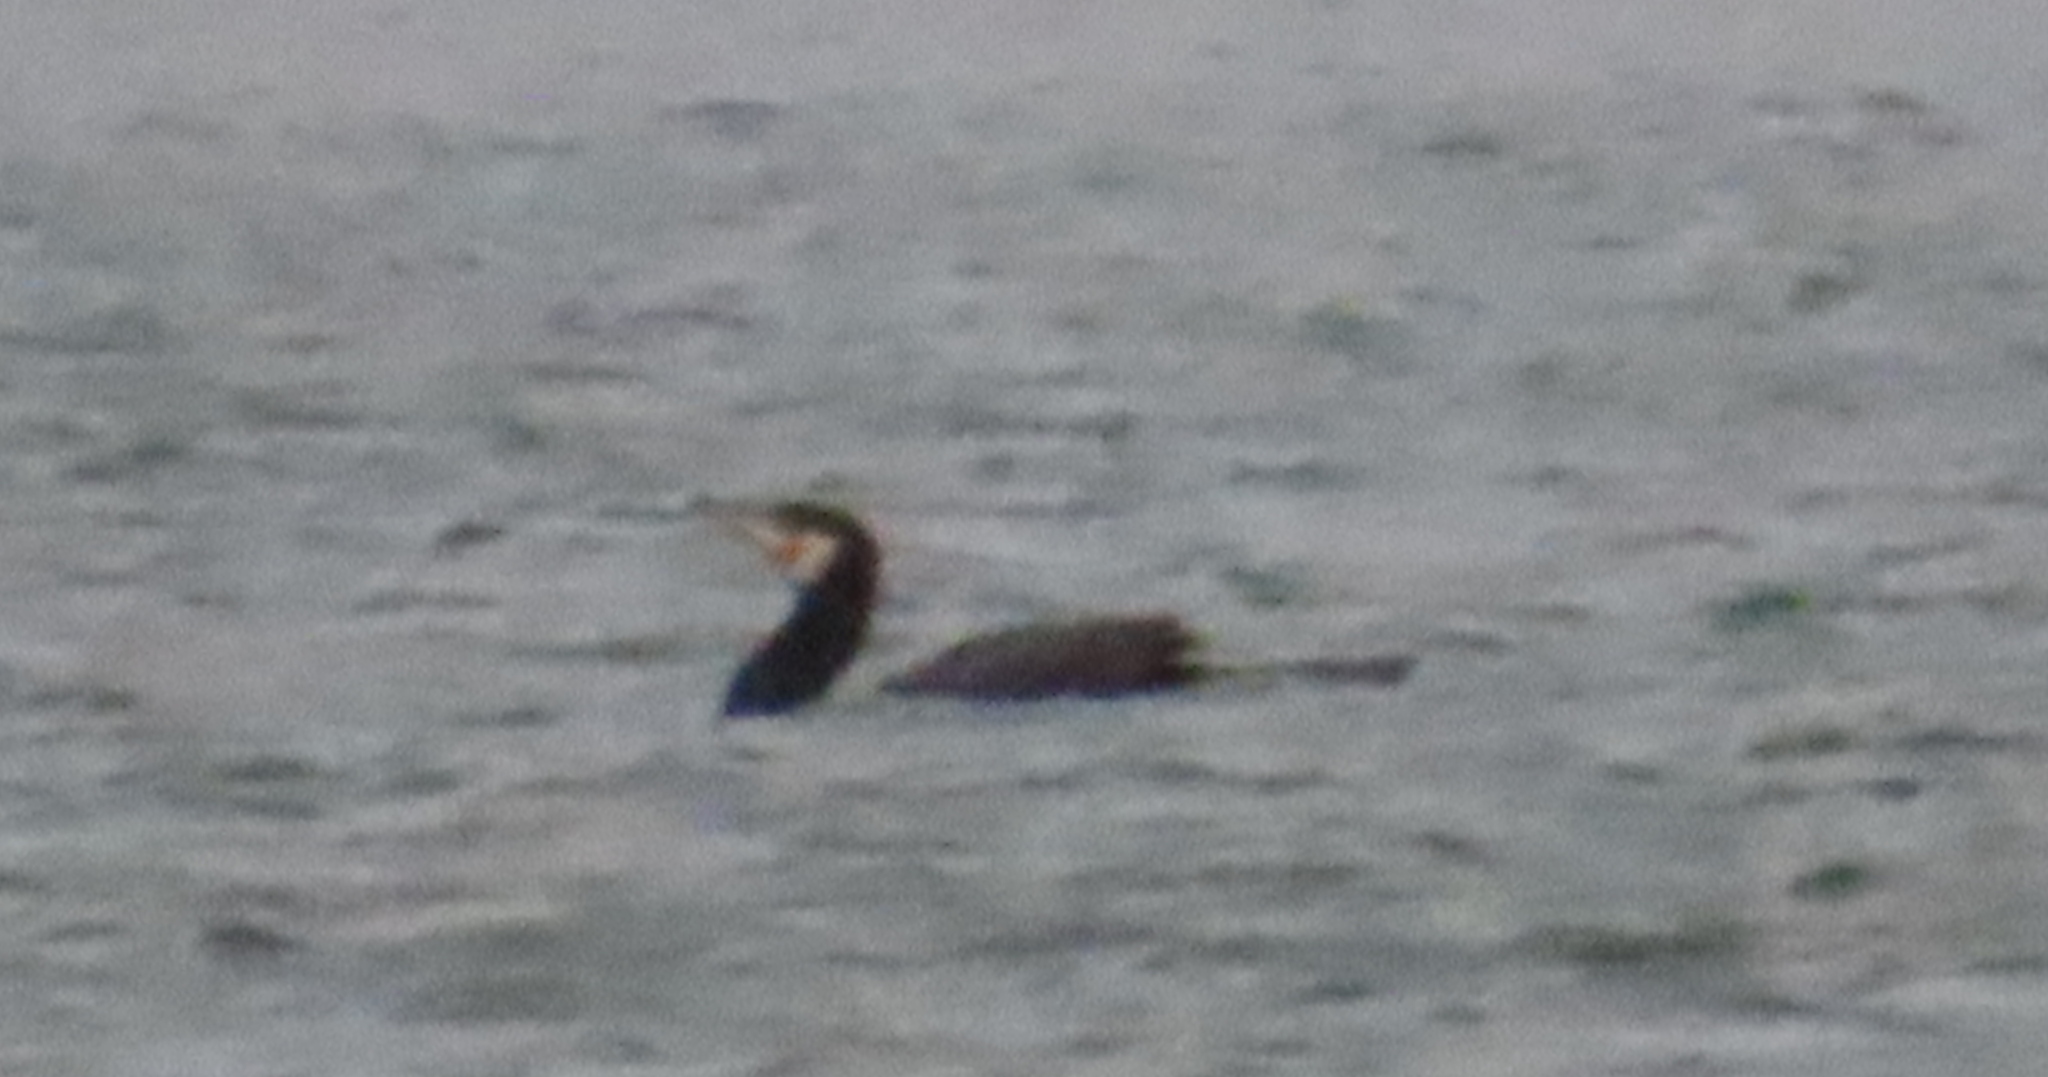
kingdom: Animalia
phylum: Chordata
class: Aves
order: Suliformes
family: Phalacrocoracidae
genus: Phalacrocorax
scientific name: Phalacrocorax carbo
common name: Great cormorant
